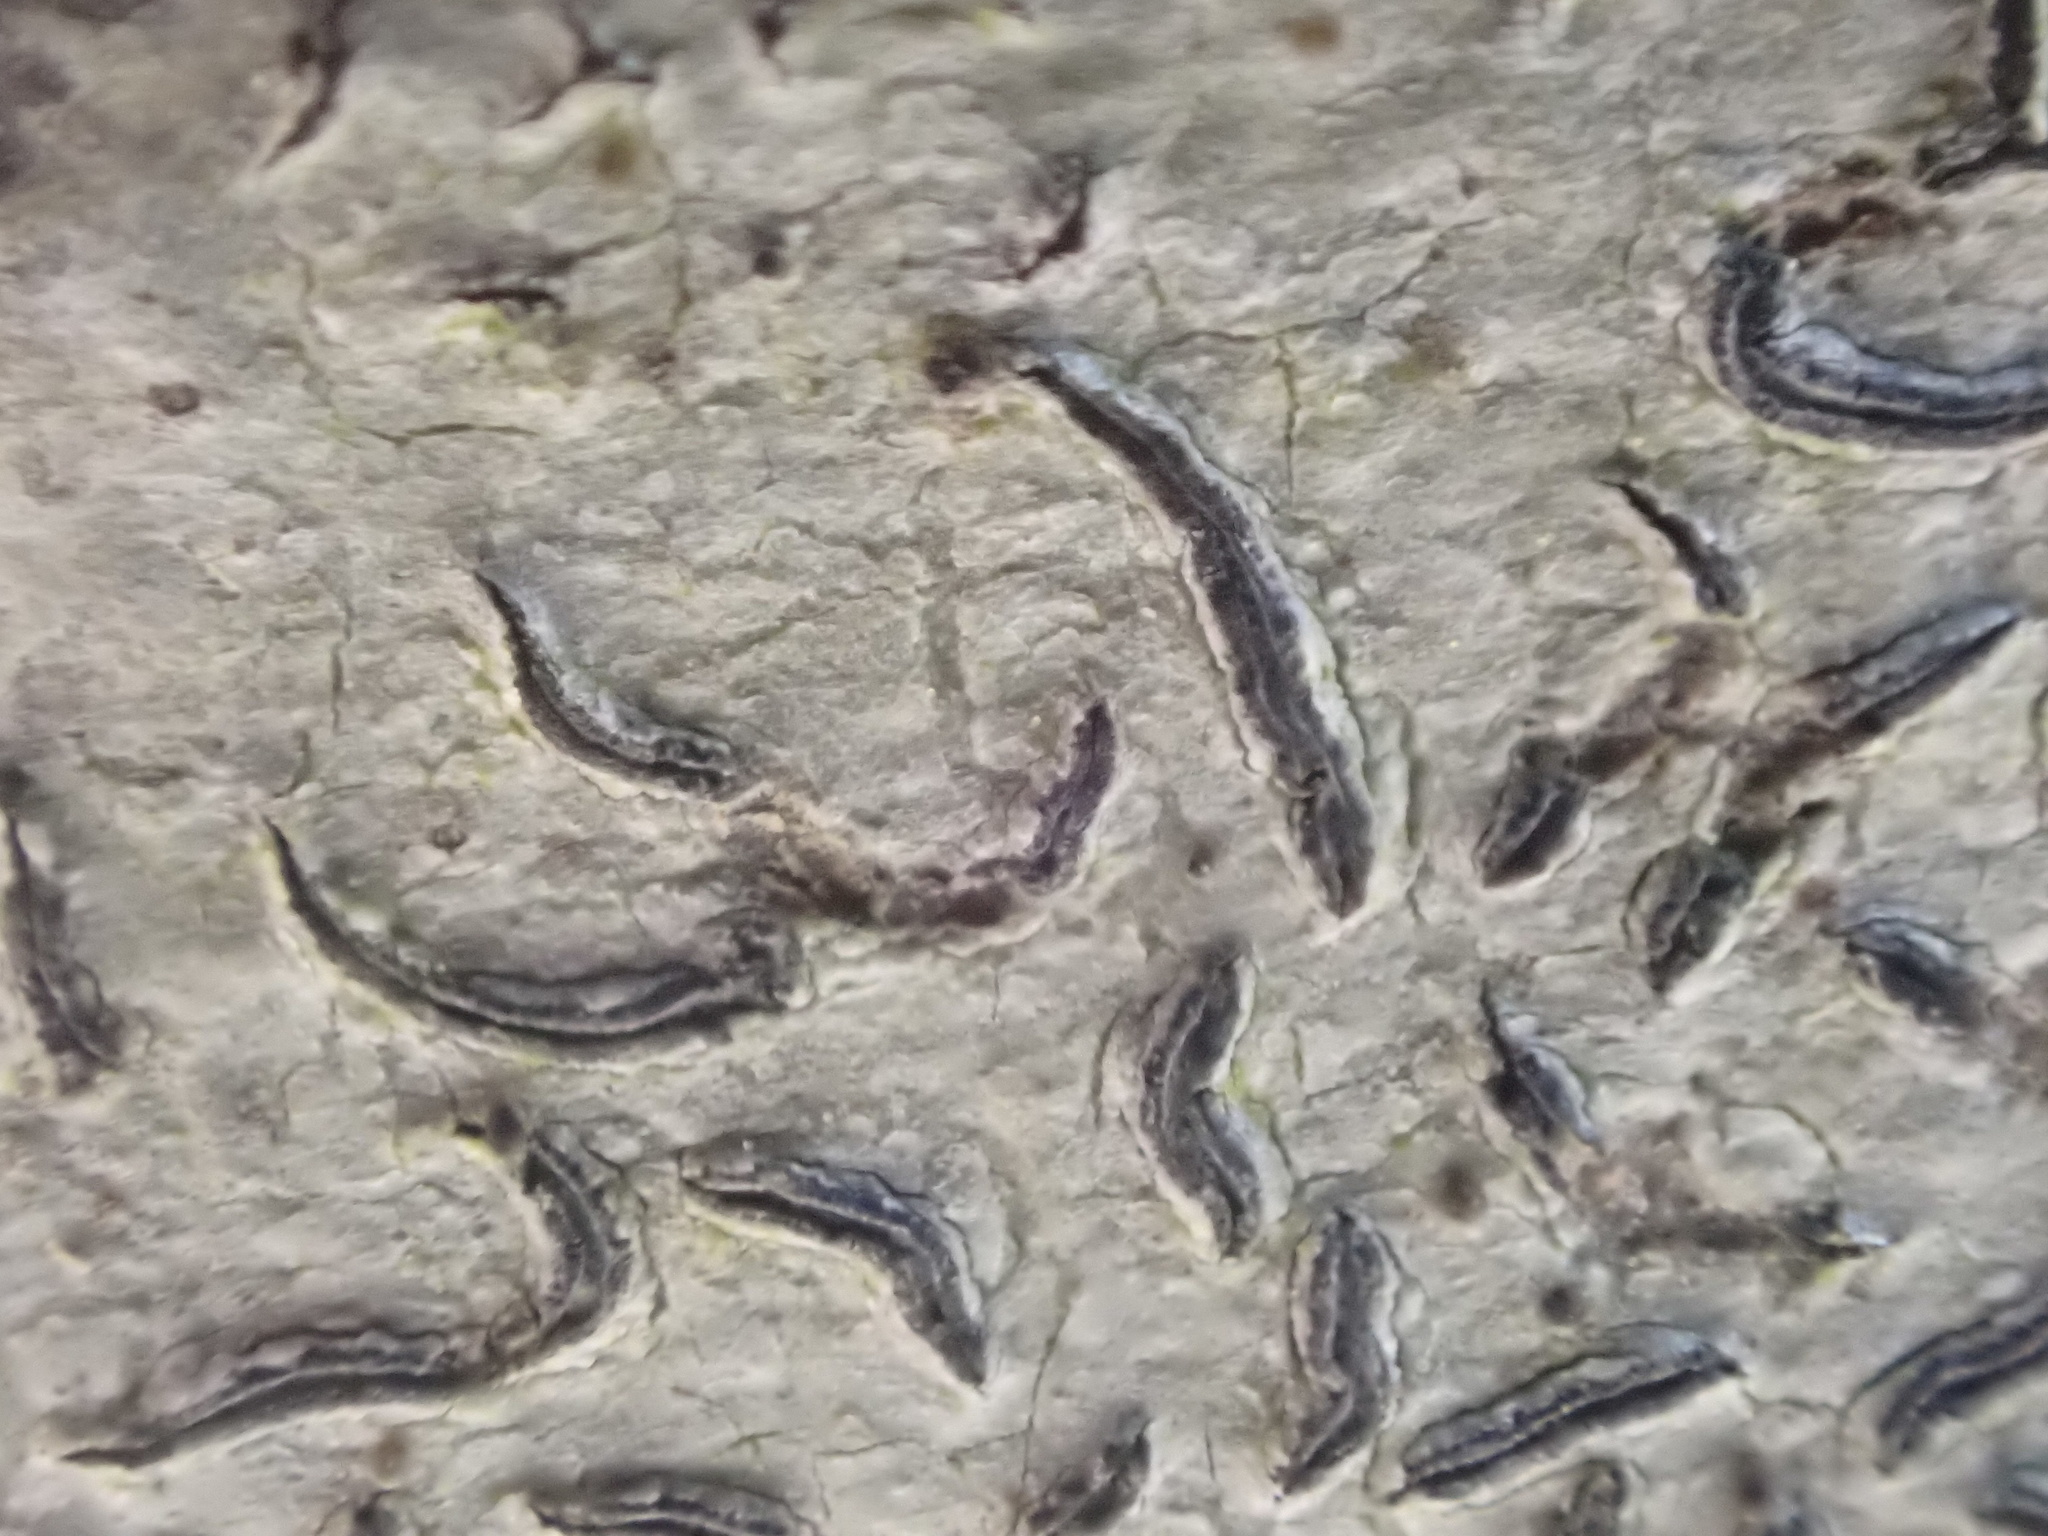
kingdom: Fungi
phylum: Ascomycota
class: Lecanoromycetes
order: Ostropales
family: Graphidaceae
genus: Graphis
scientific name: Graphis scripta
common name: Script lichen
